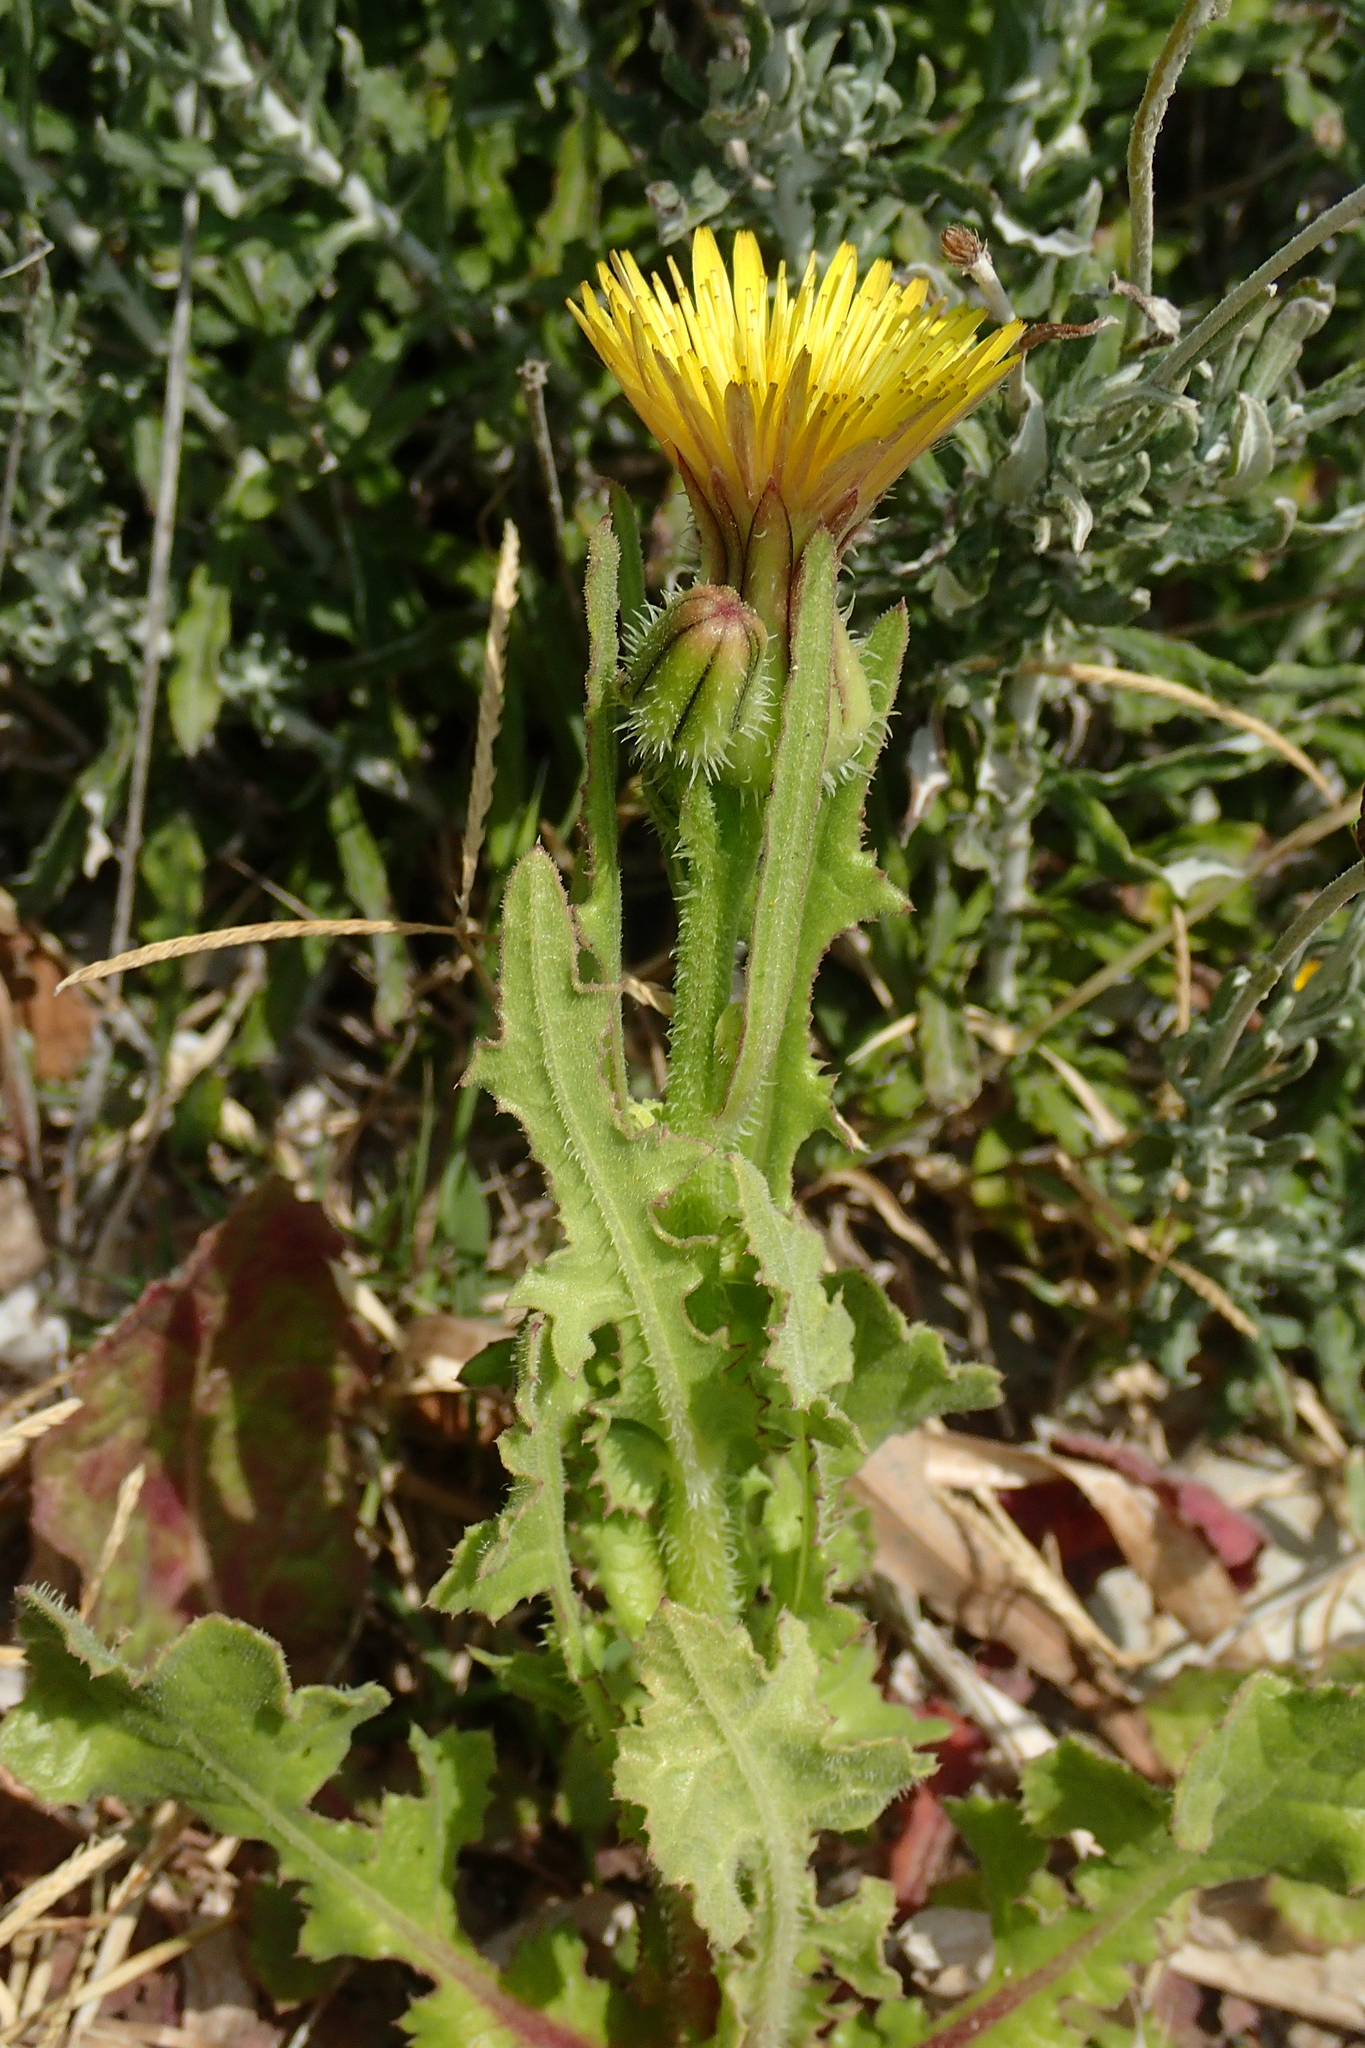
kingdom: Plantae
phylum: Tracheophyta
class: Magnoliopsida
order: Asterales
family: Asteraceae
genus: Urospermum
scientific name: Urospermum picroides
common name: False hawkbit
